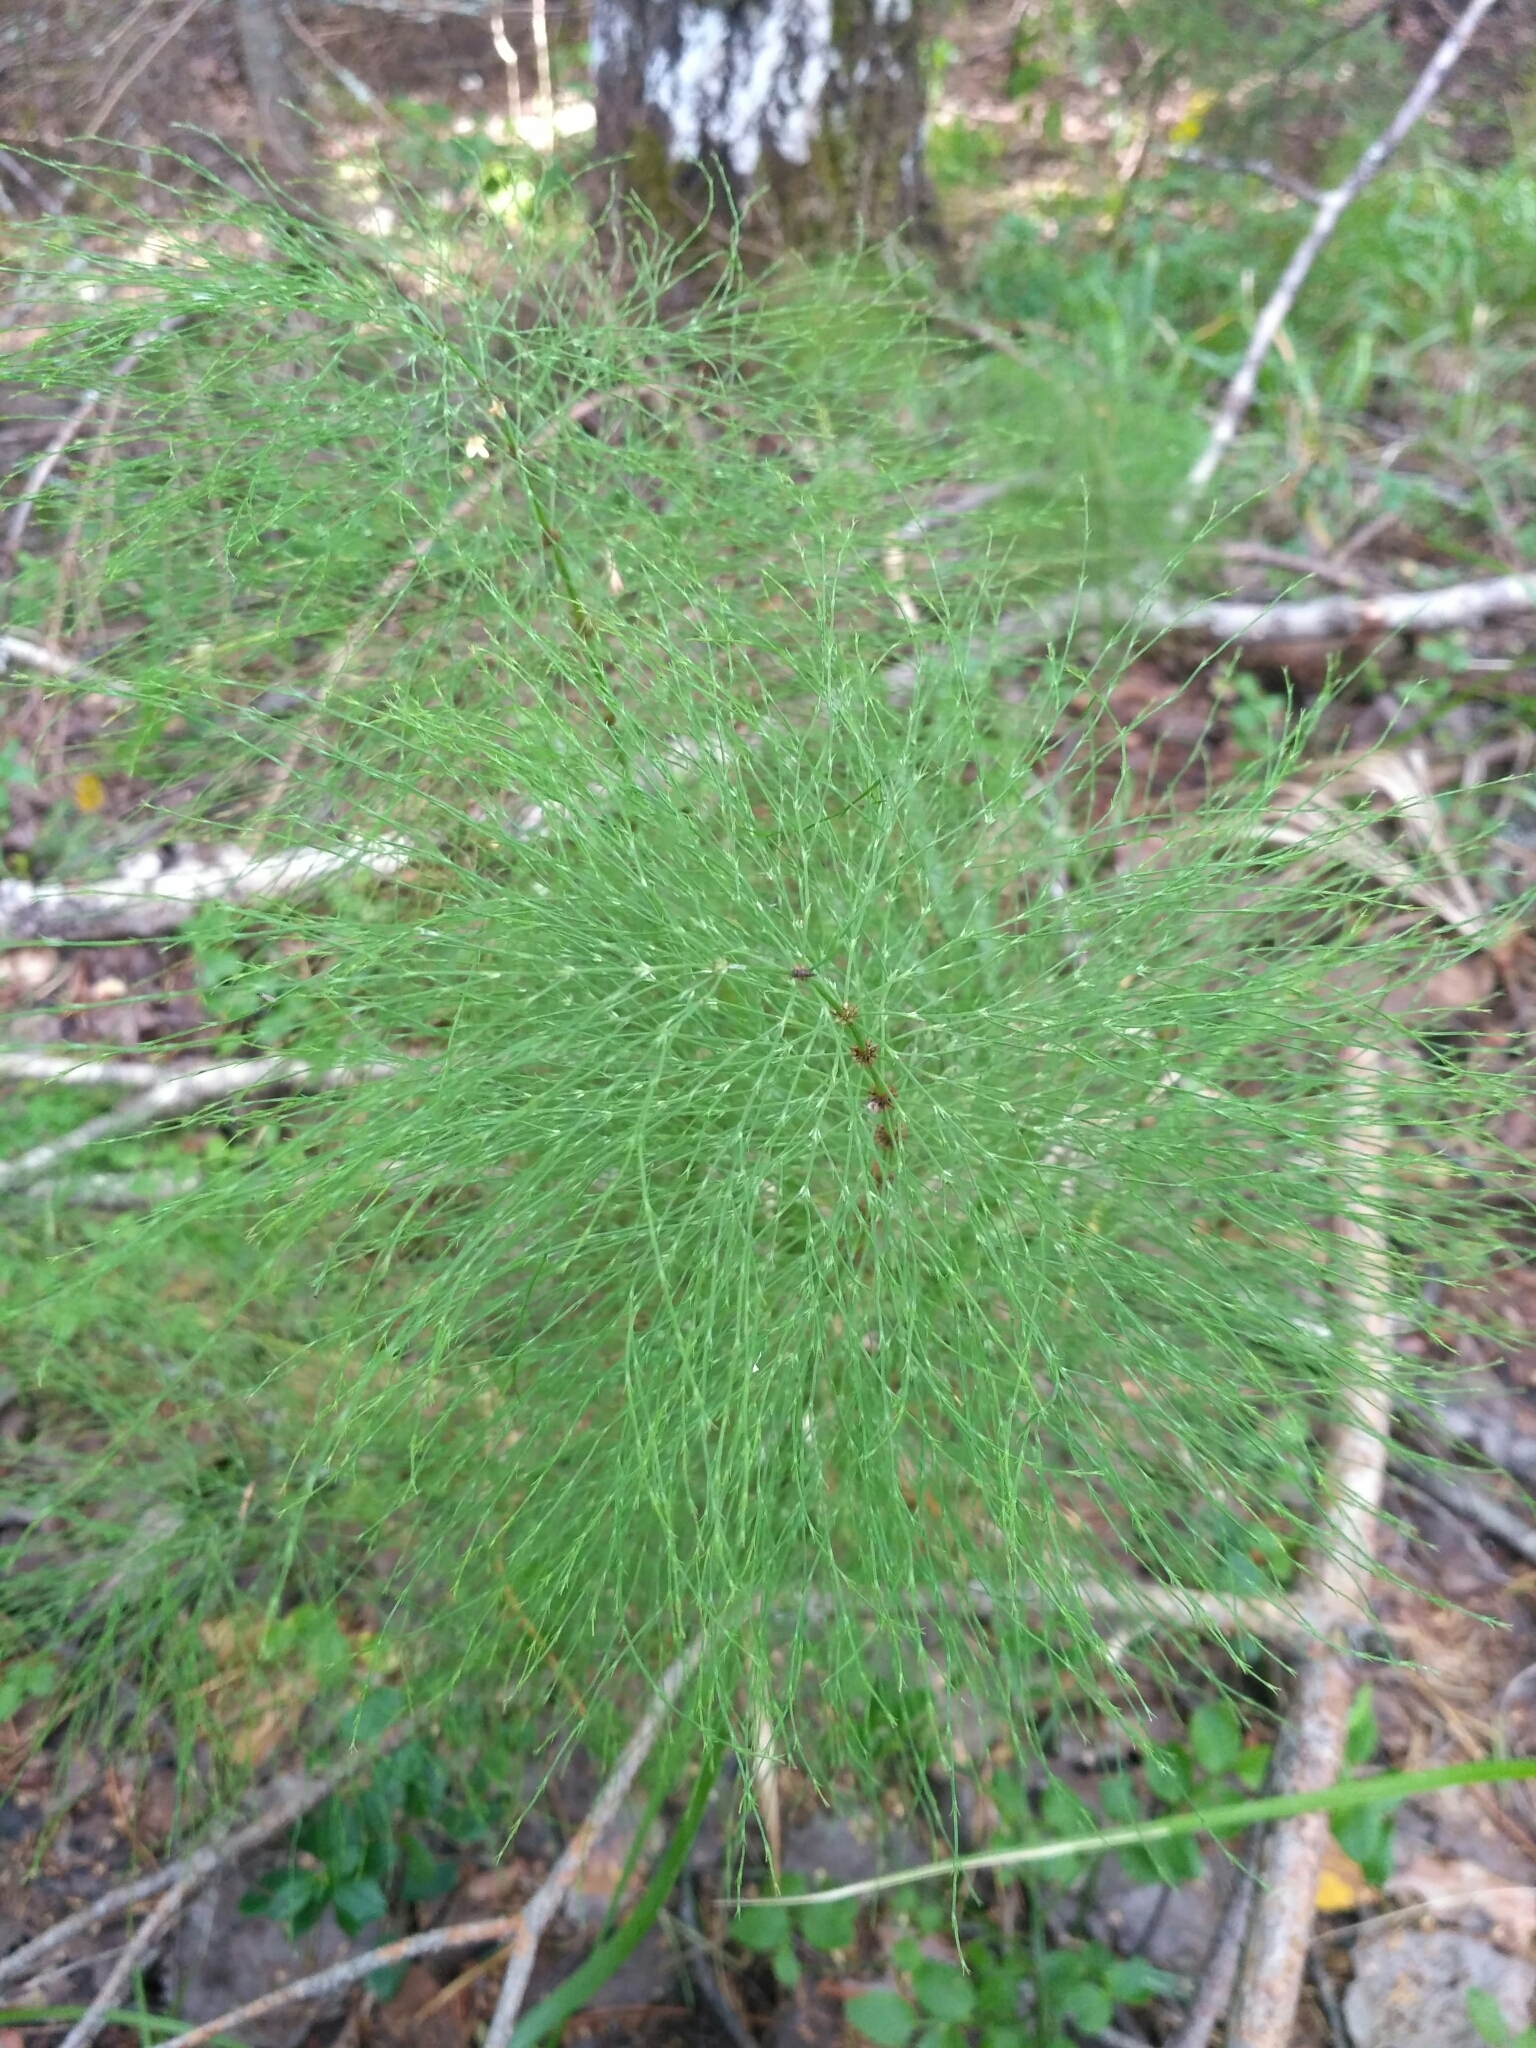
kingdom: Plantae
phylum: Tracheophyta
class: Polypodiopsida
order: Equisetales
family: Equisetaceae
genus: Equisetum
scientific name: Equisetum sylvaticum
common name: Wood horsetail
